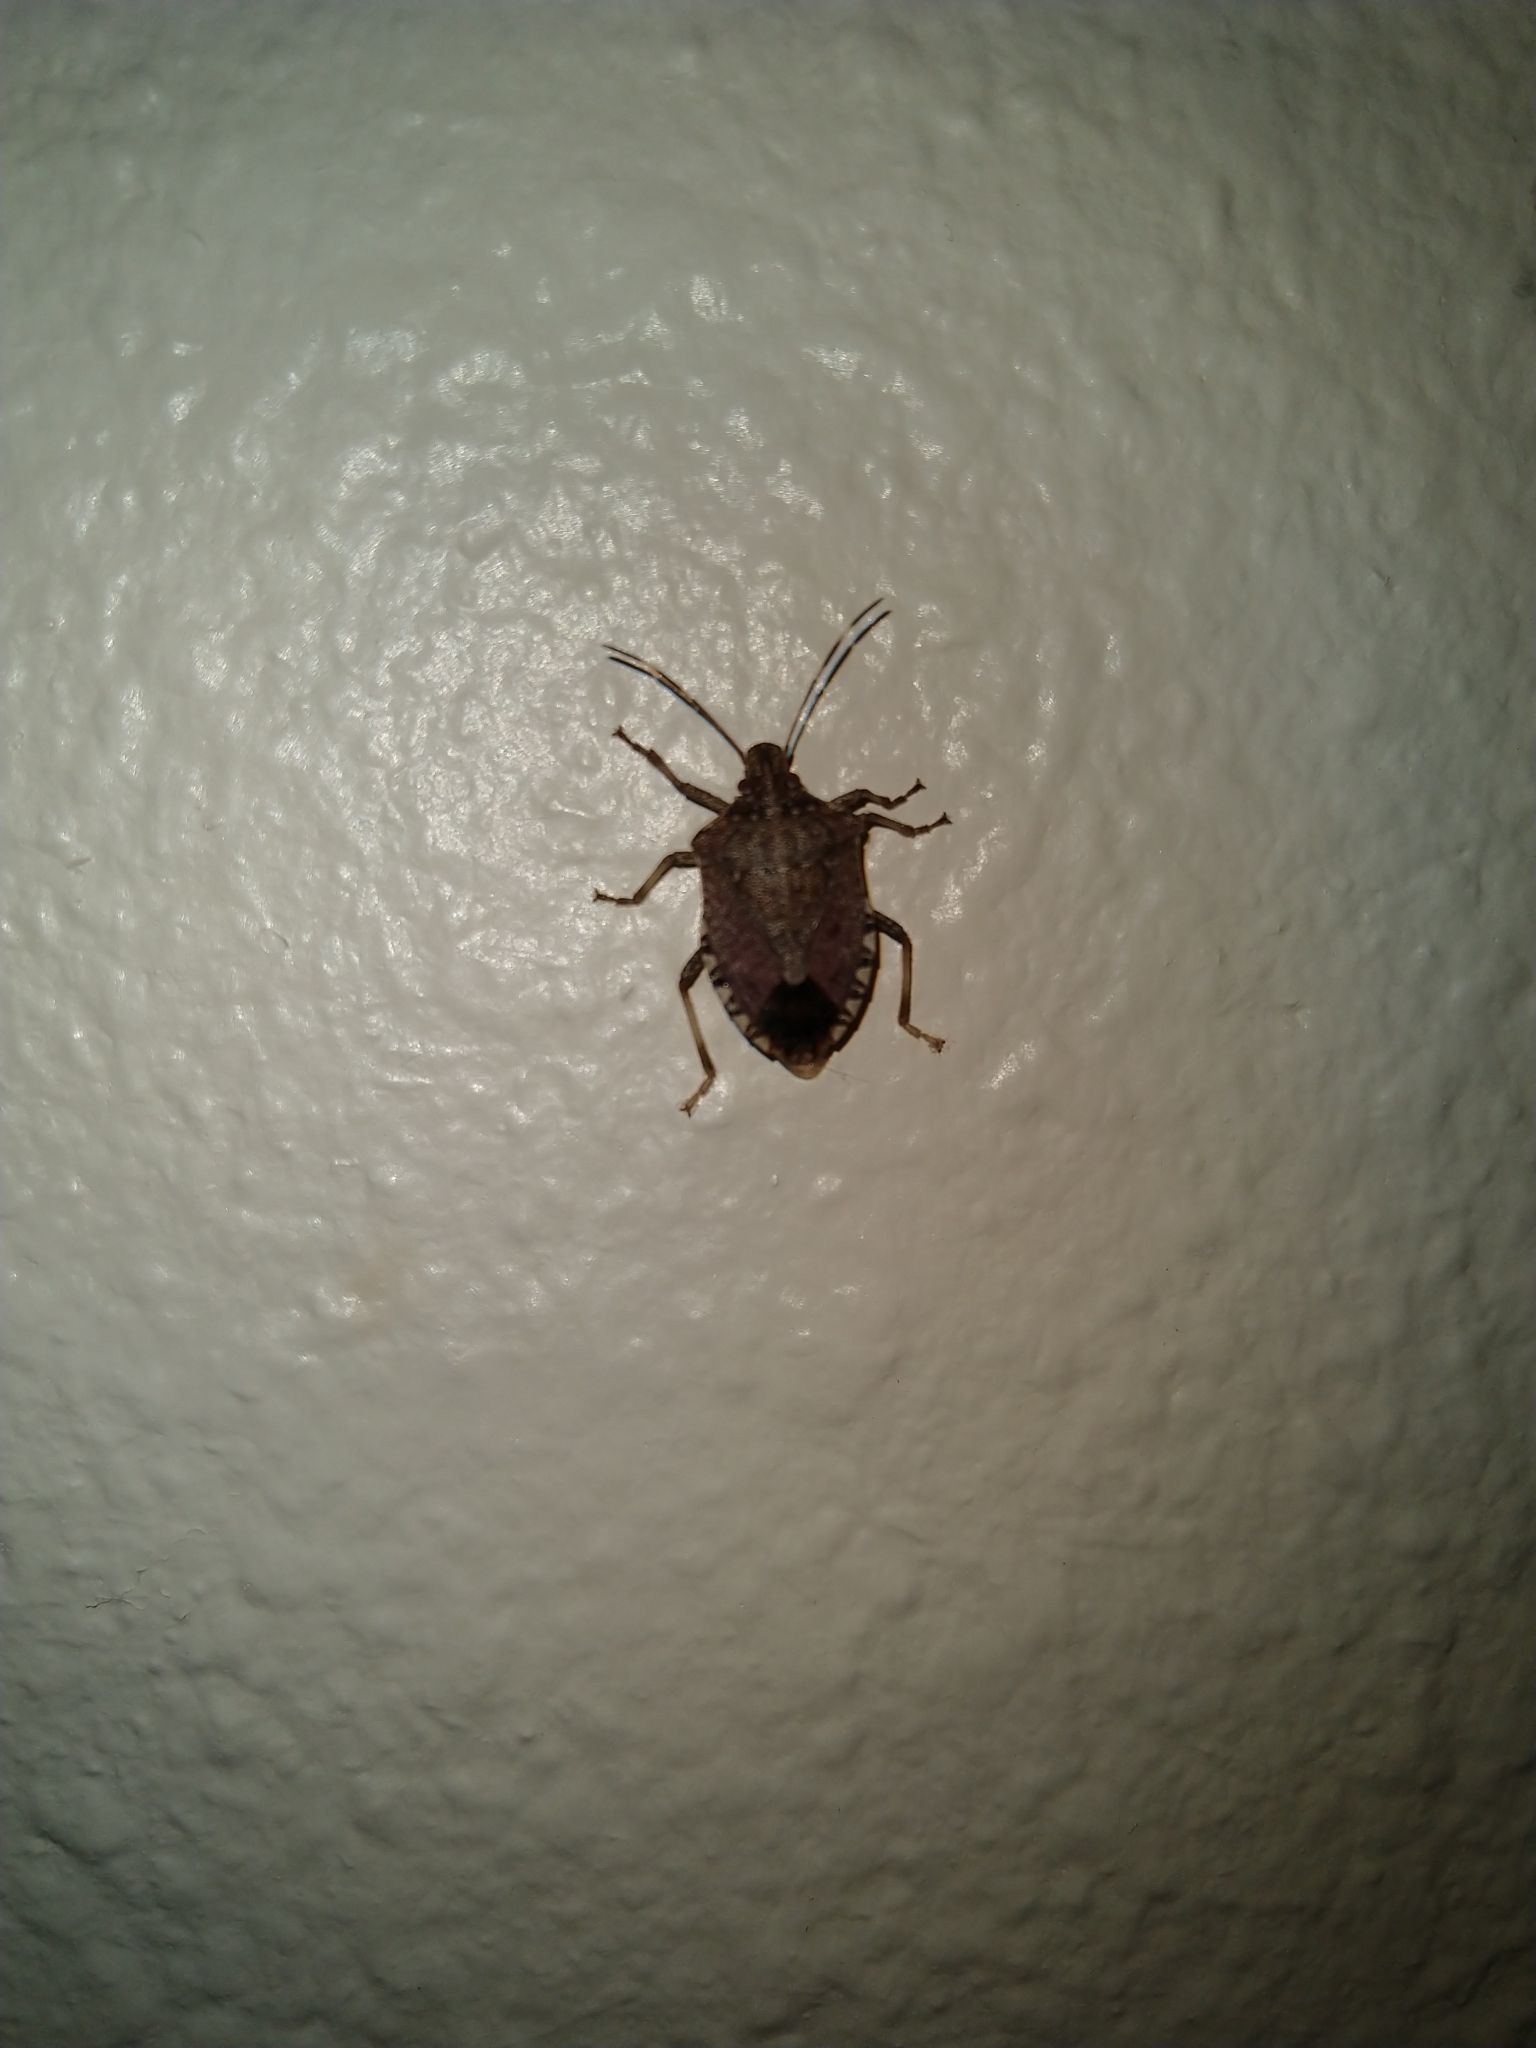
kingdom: Animalia
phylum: Arthropoda
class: Insecta
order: Hemiptera
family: Pentatomidae
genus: Halyomorpha
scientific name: Halyomorpha halys
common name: Brown marmorated stink bug
